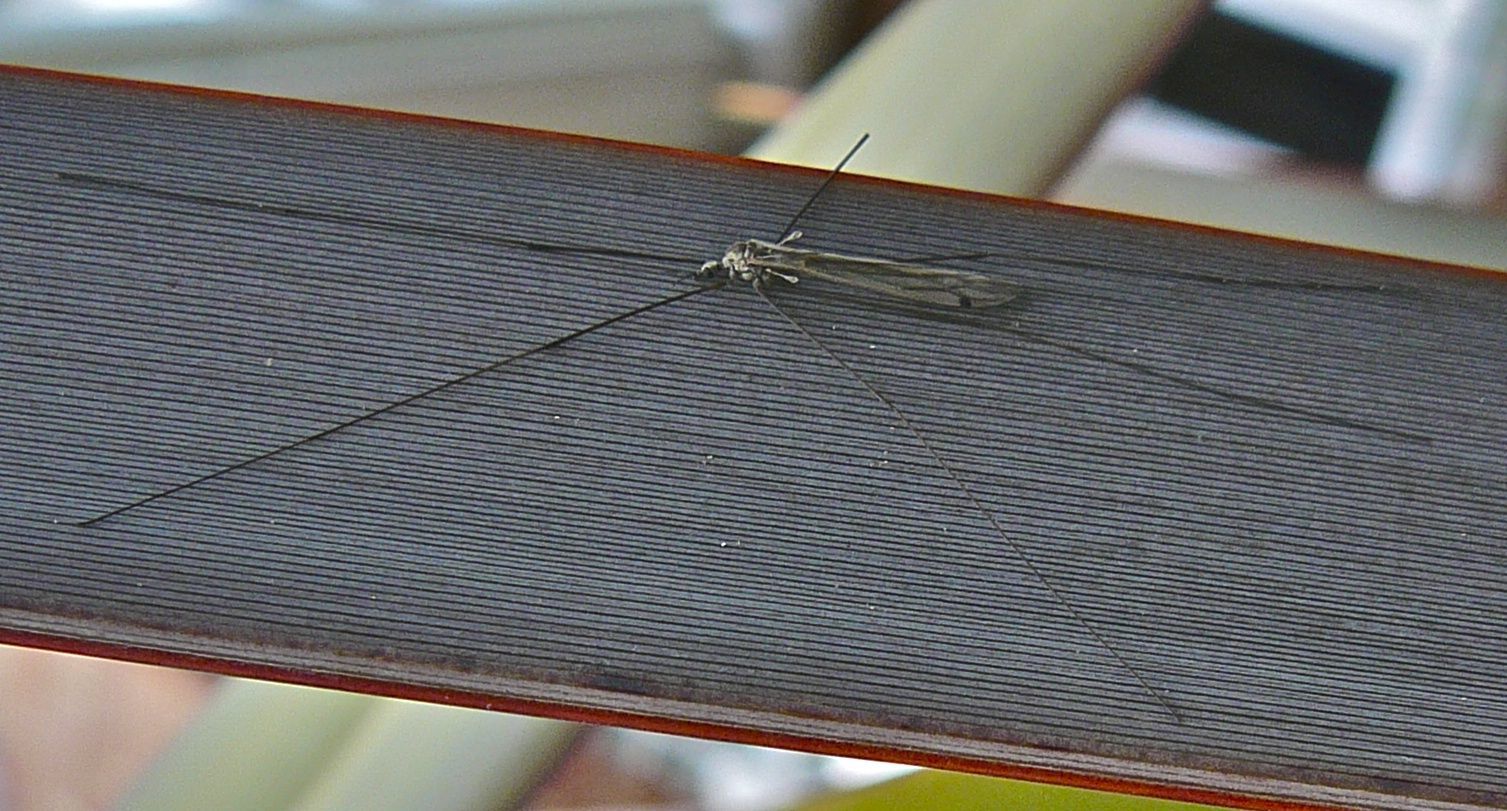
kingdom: Animalia
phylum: Arthropoda
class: Insecta
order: Diptera
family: Limoniidae
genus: Dicranomyia
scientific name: Dicranomyia aegrotans
